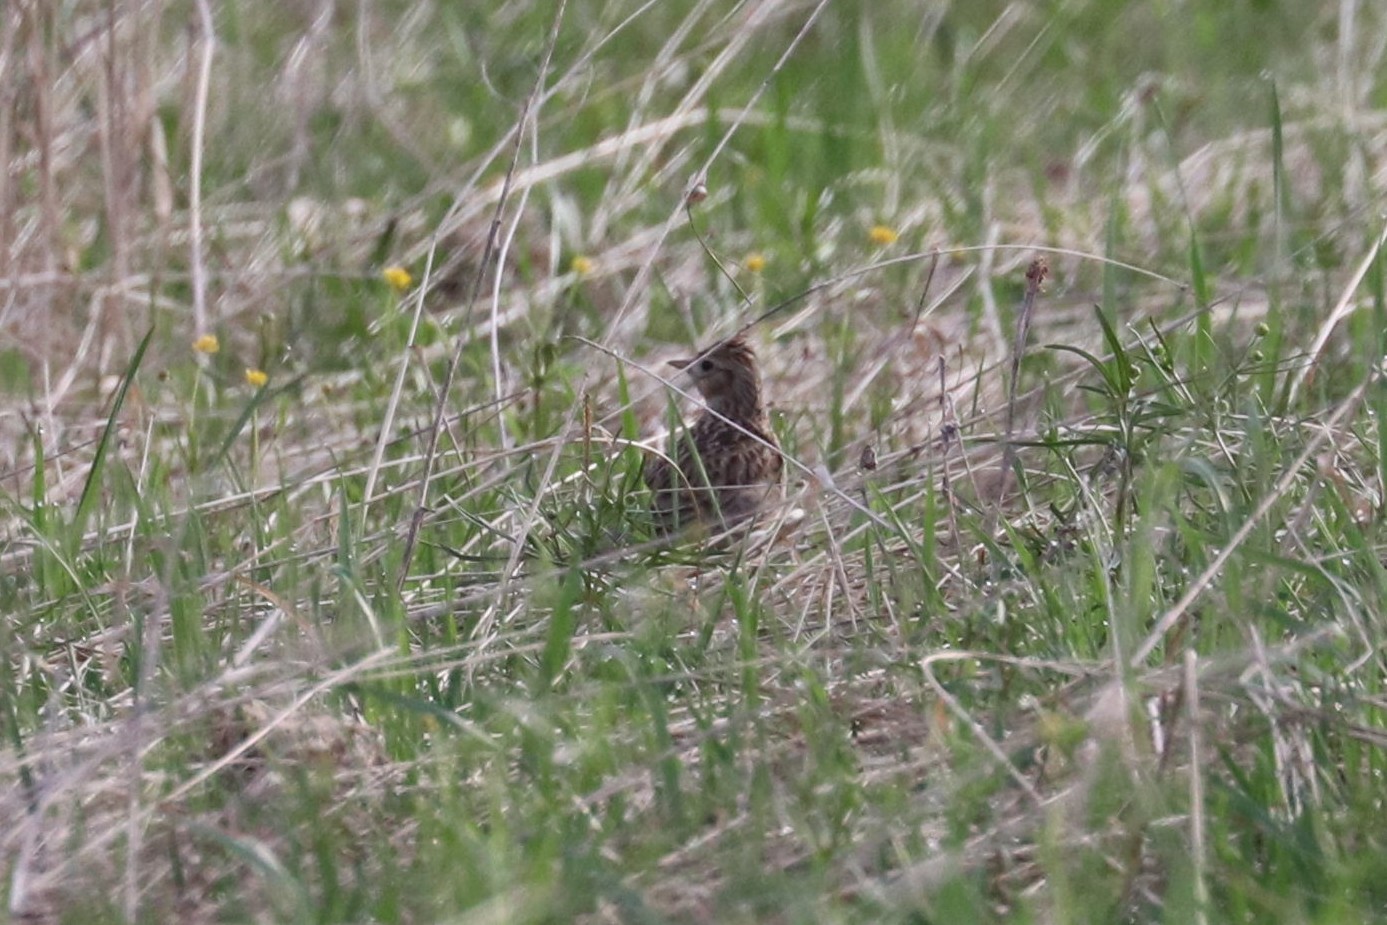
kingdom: Animalia
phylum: Chordata
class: Aves
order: Passeriformes
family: Alaudidae
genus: Alauda
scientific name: Alauda arvensis
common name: Eurasian skylark
